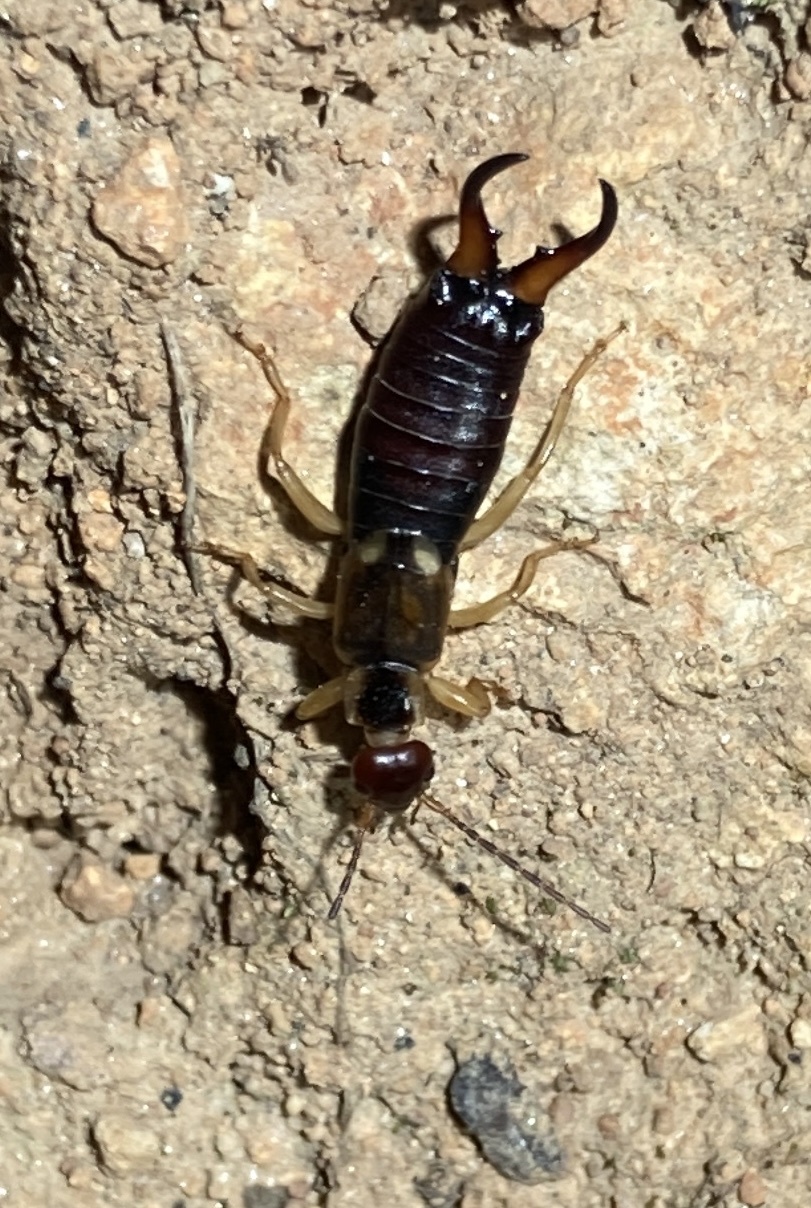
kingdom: Animalia
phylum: Arthropoda
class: Insecta
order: Dermaptera
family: Forficulidae
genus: Forficula
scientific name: Forficula dentata
